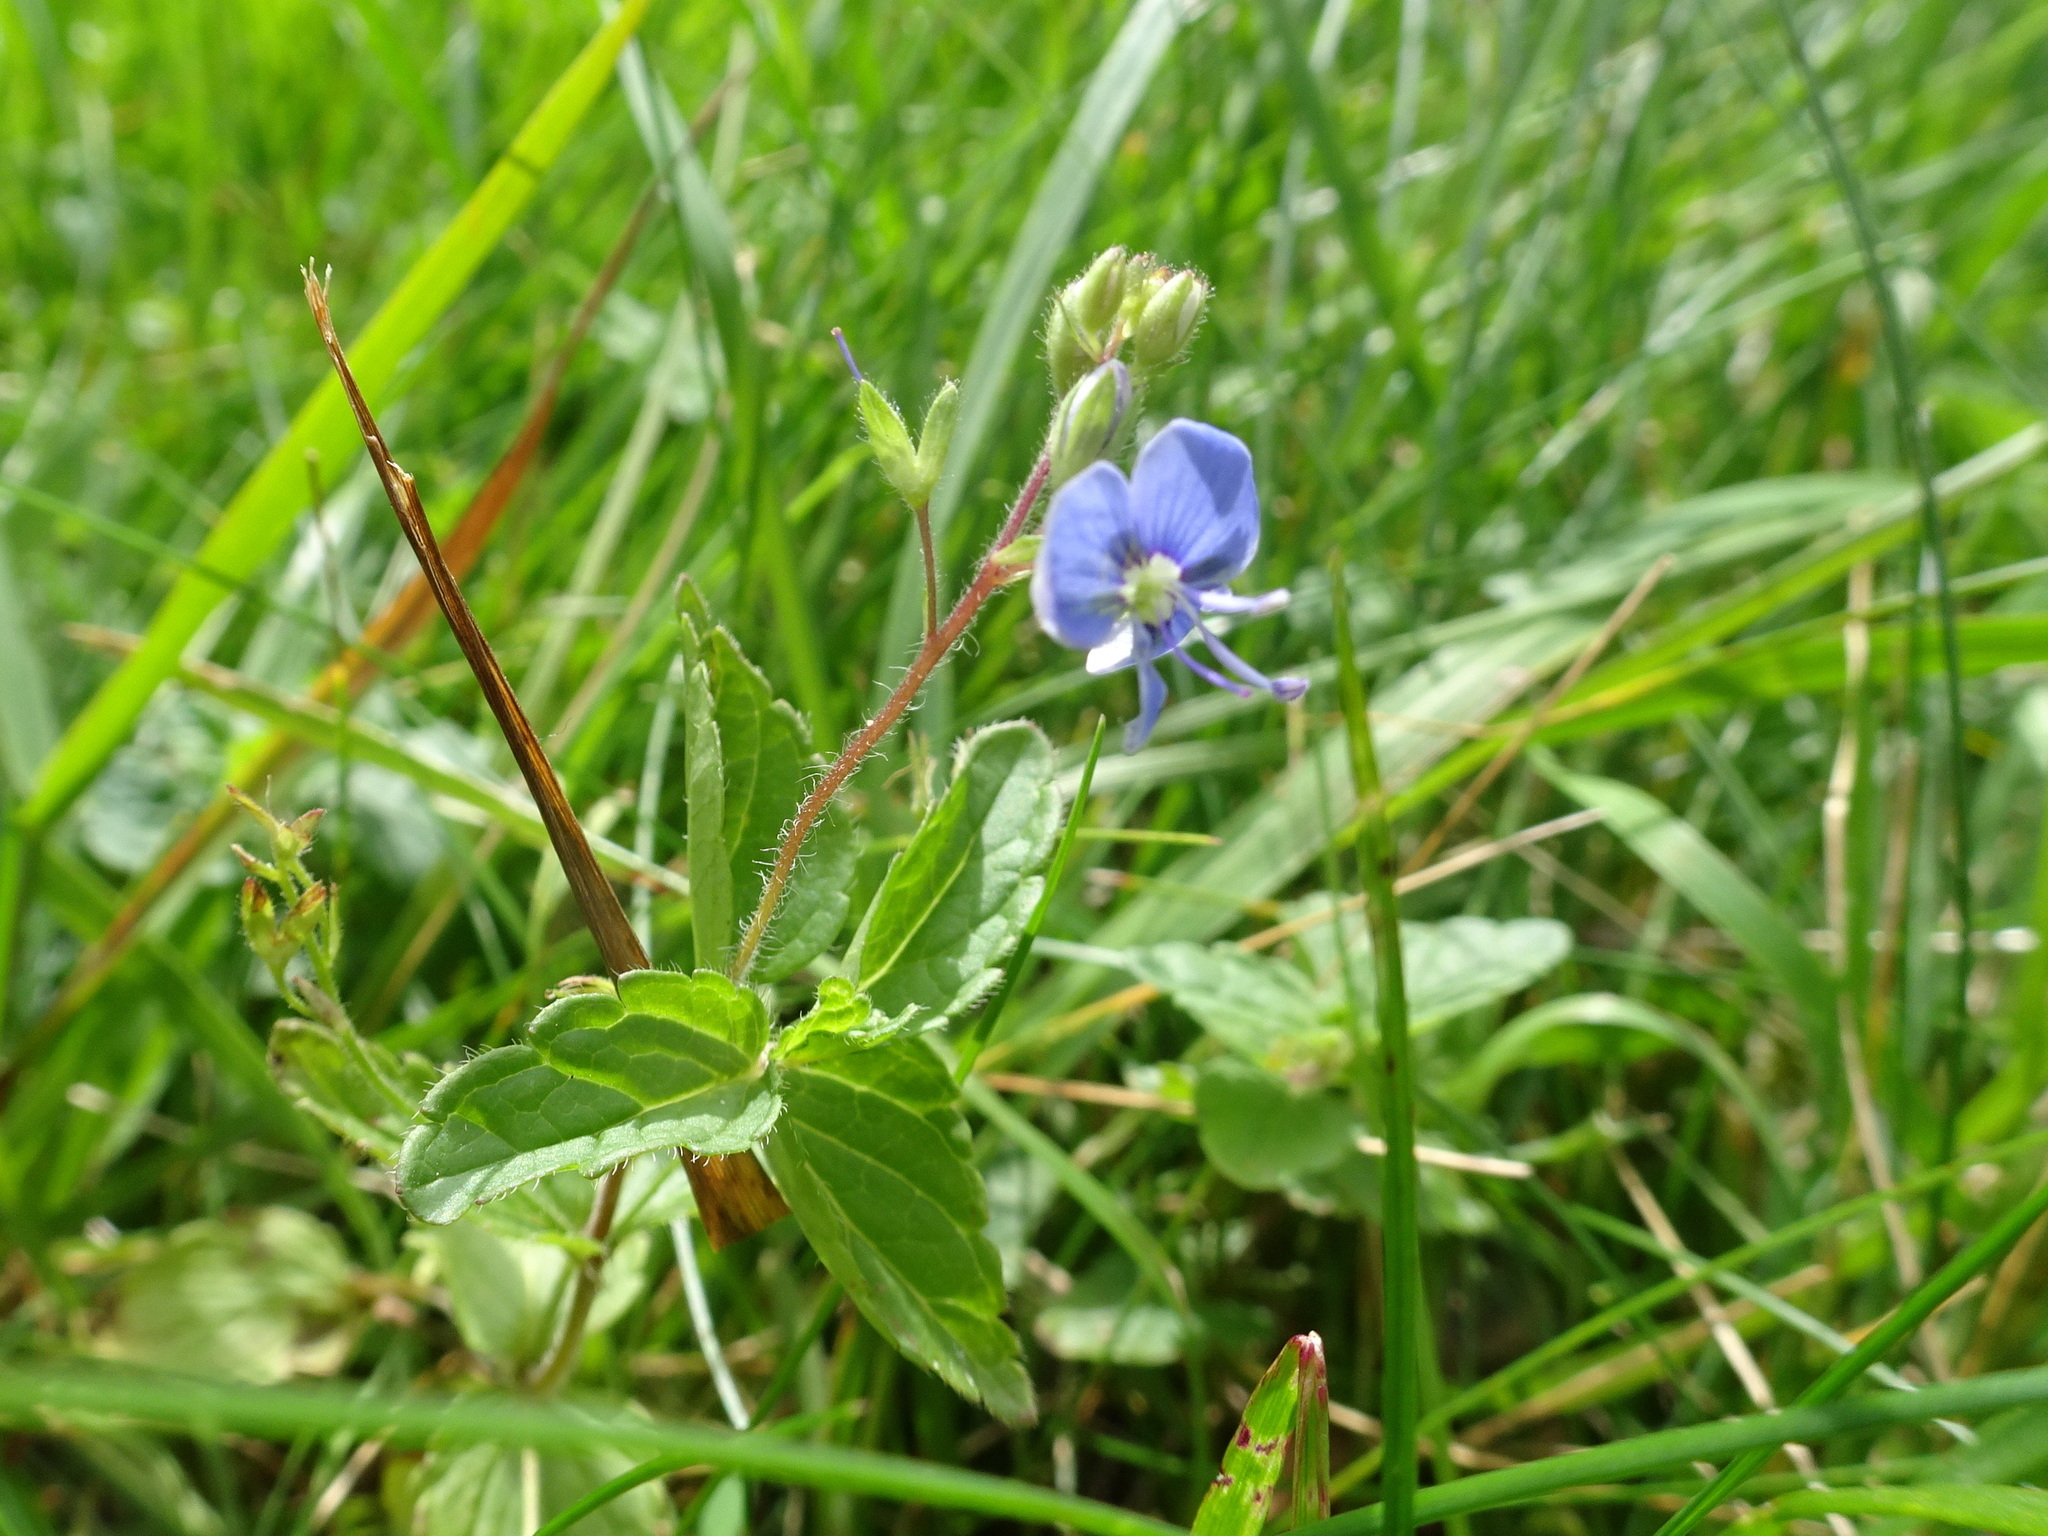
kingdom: Plantae
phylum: Tracheophyta
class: Magnoliopsida
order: Lamiales
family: Plantaginaceae
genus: Veronica
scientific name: Veronica chamaedrys
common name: Germander speedwell
